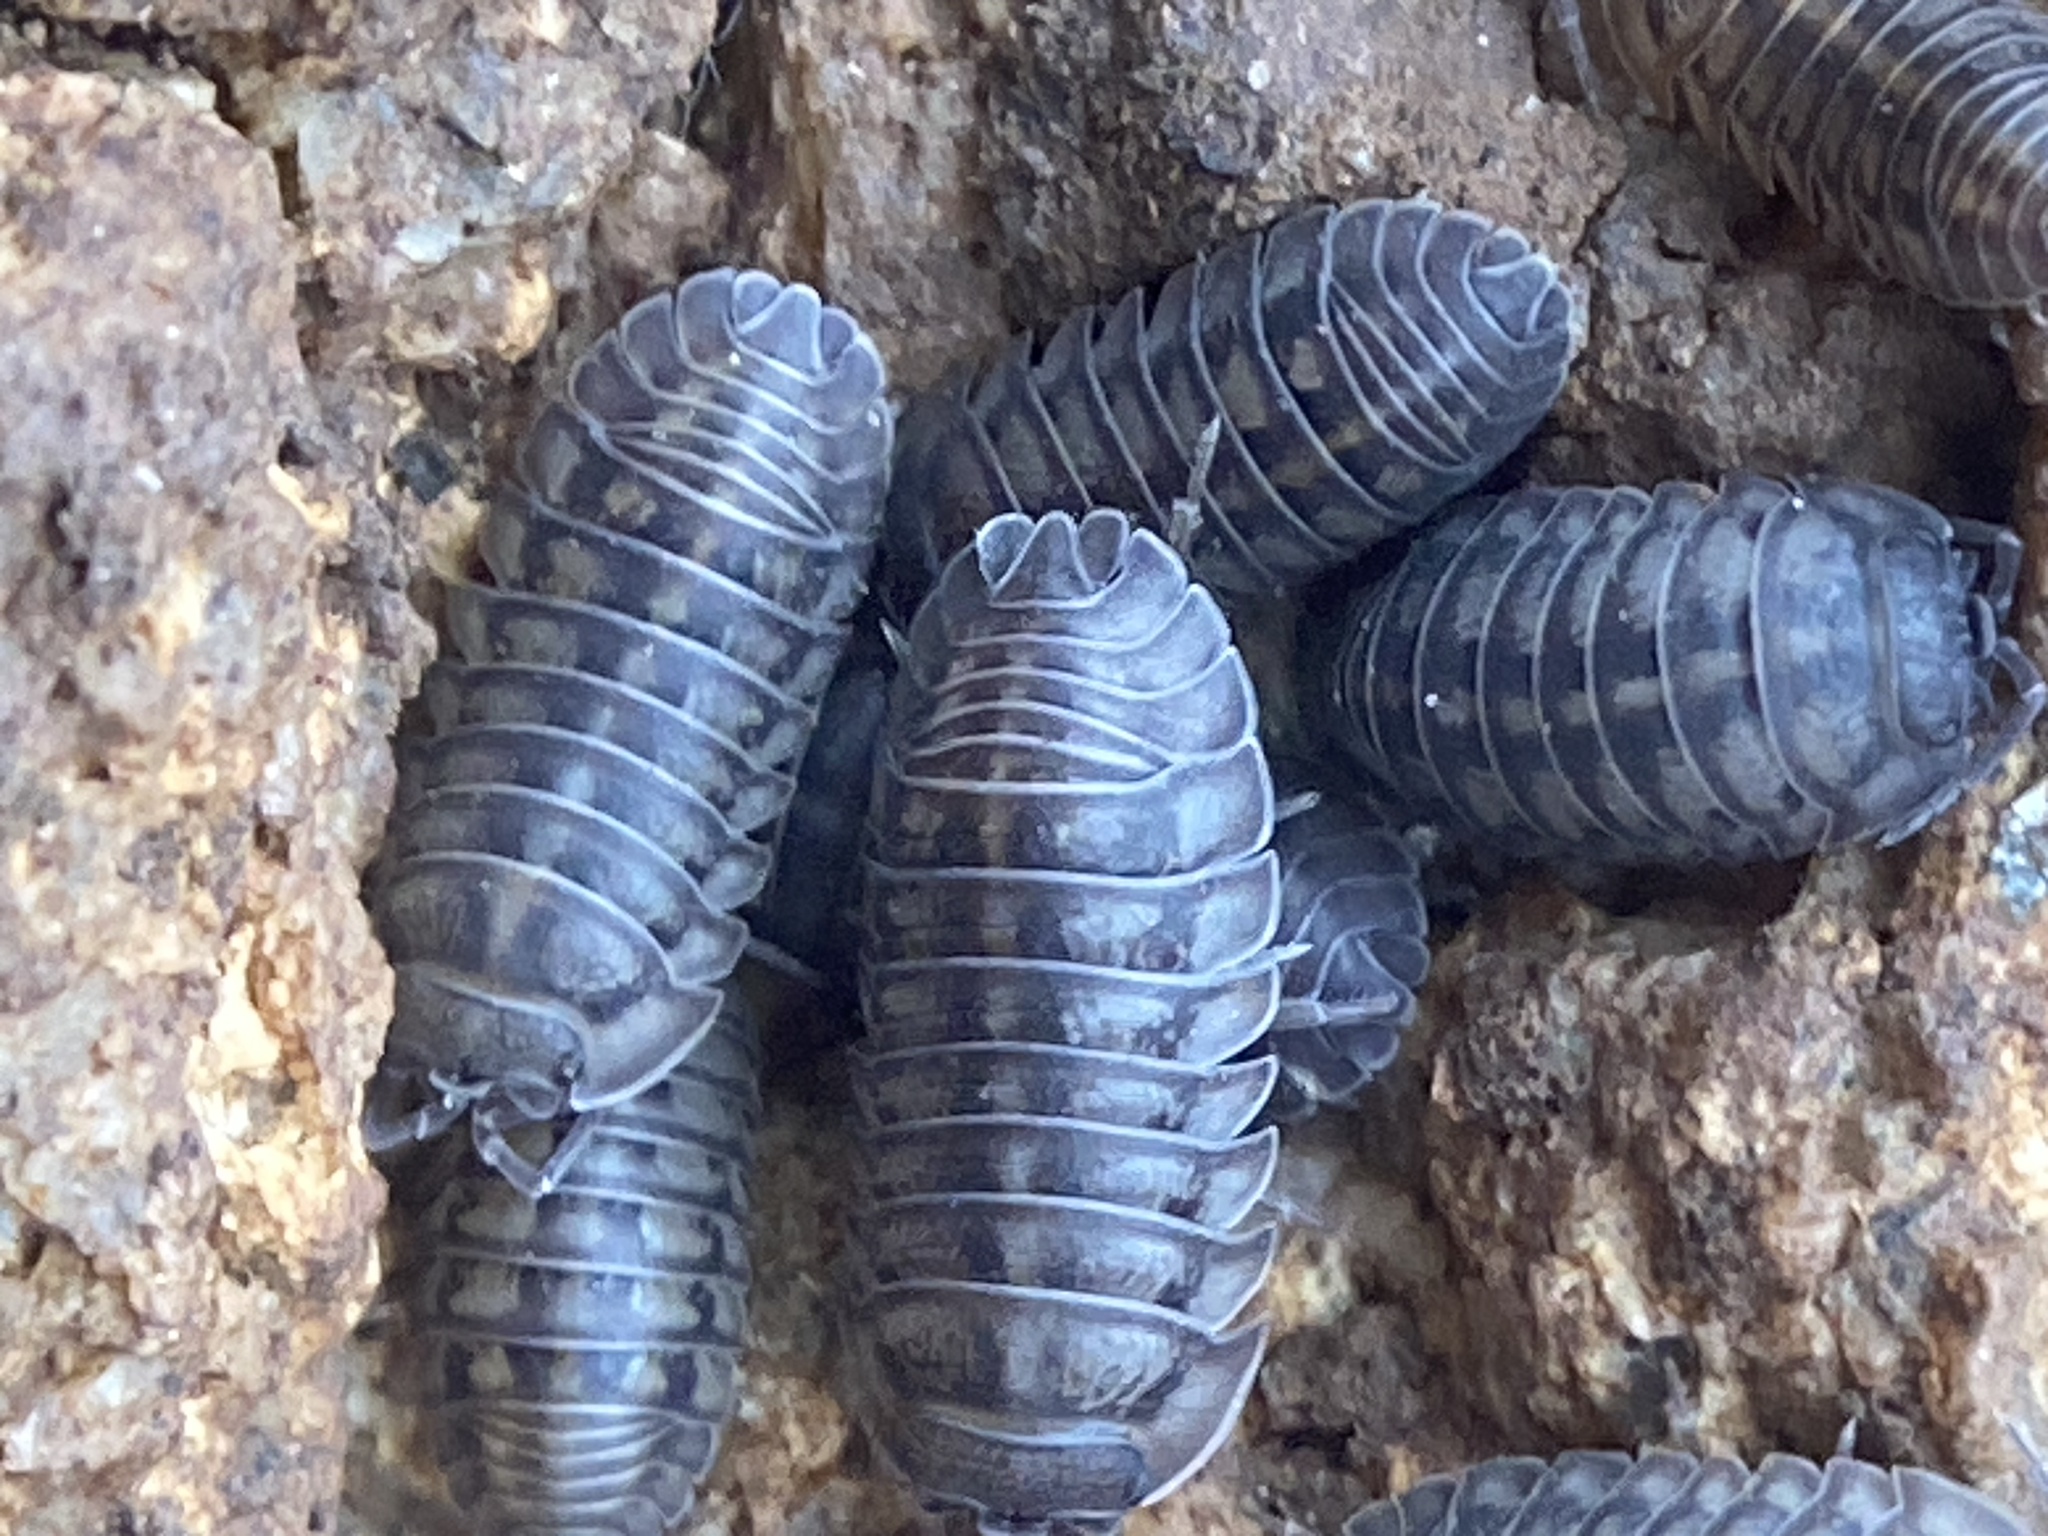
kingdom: Animalia
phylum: Arthropoda
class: Malacostraca
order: Isopoda
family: Armadillidiidae
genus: Armadillidium
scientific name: Armadillidium nasatum
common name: Isopod
